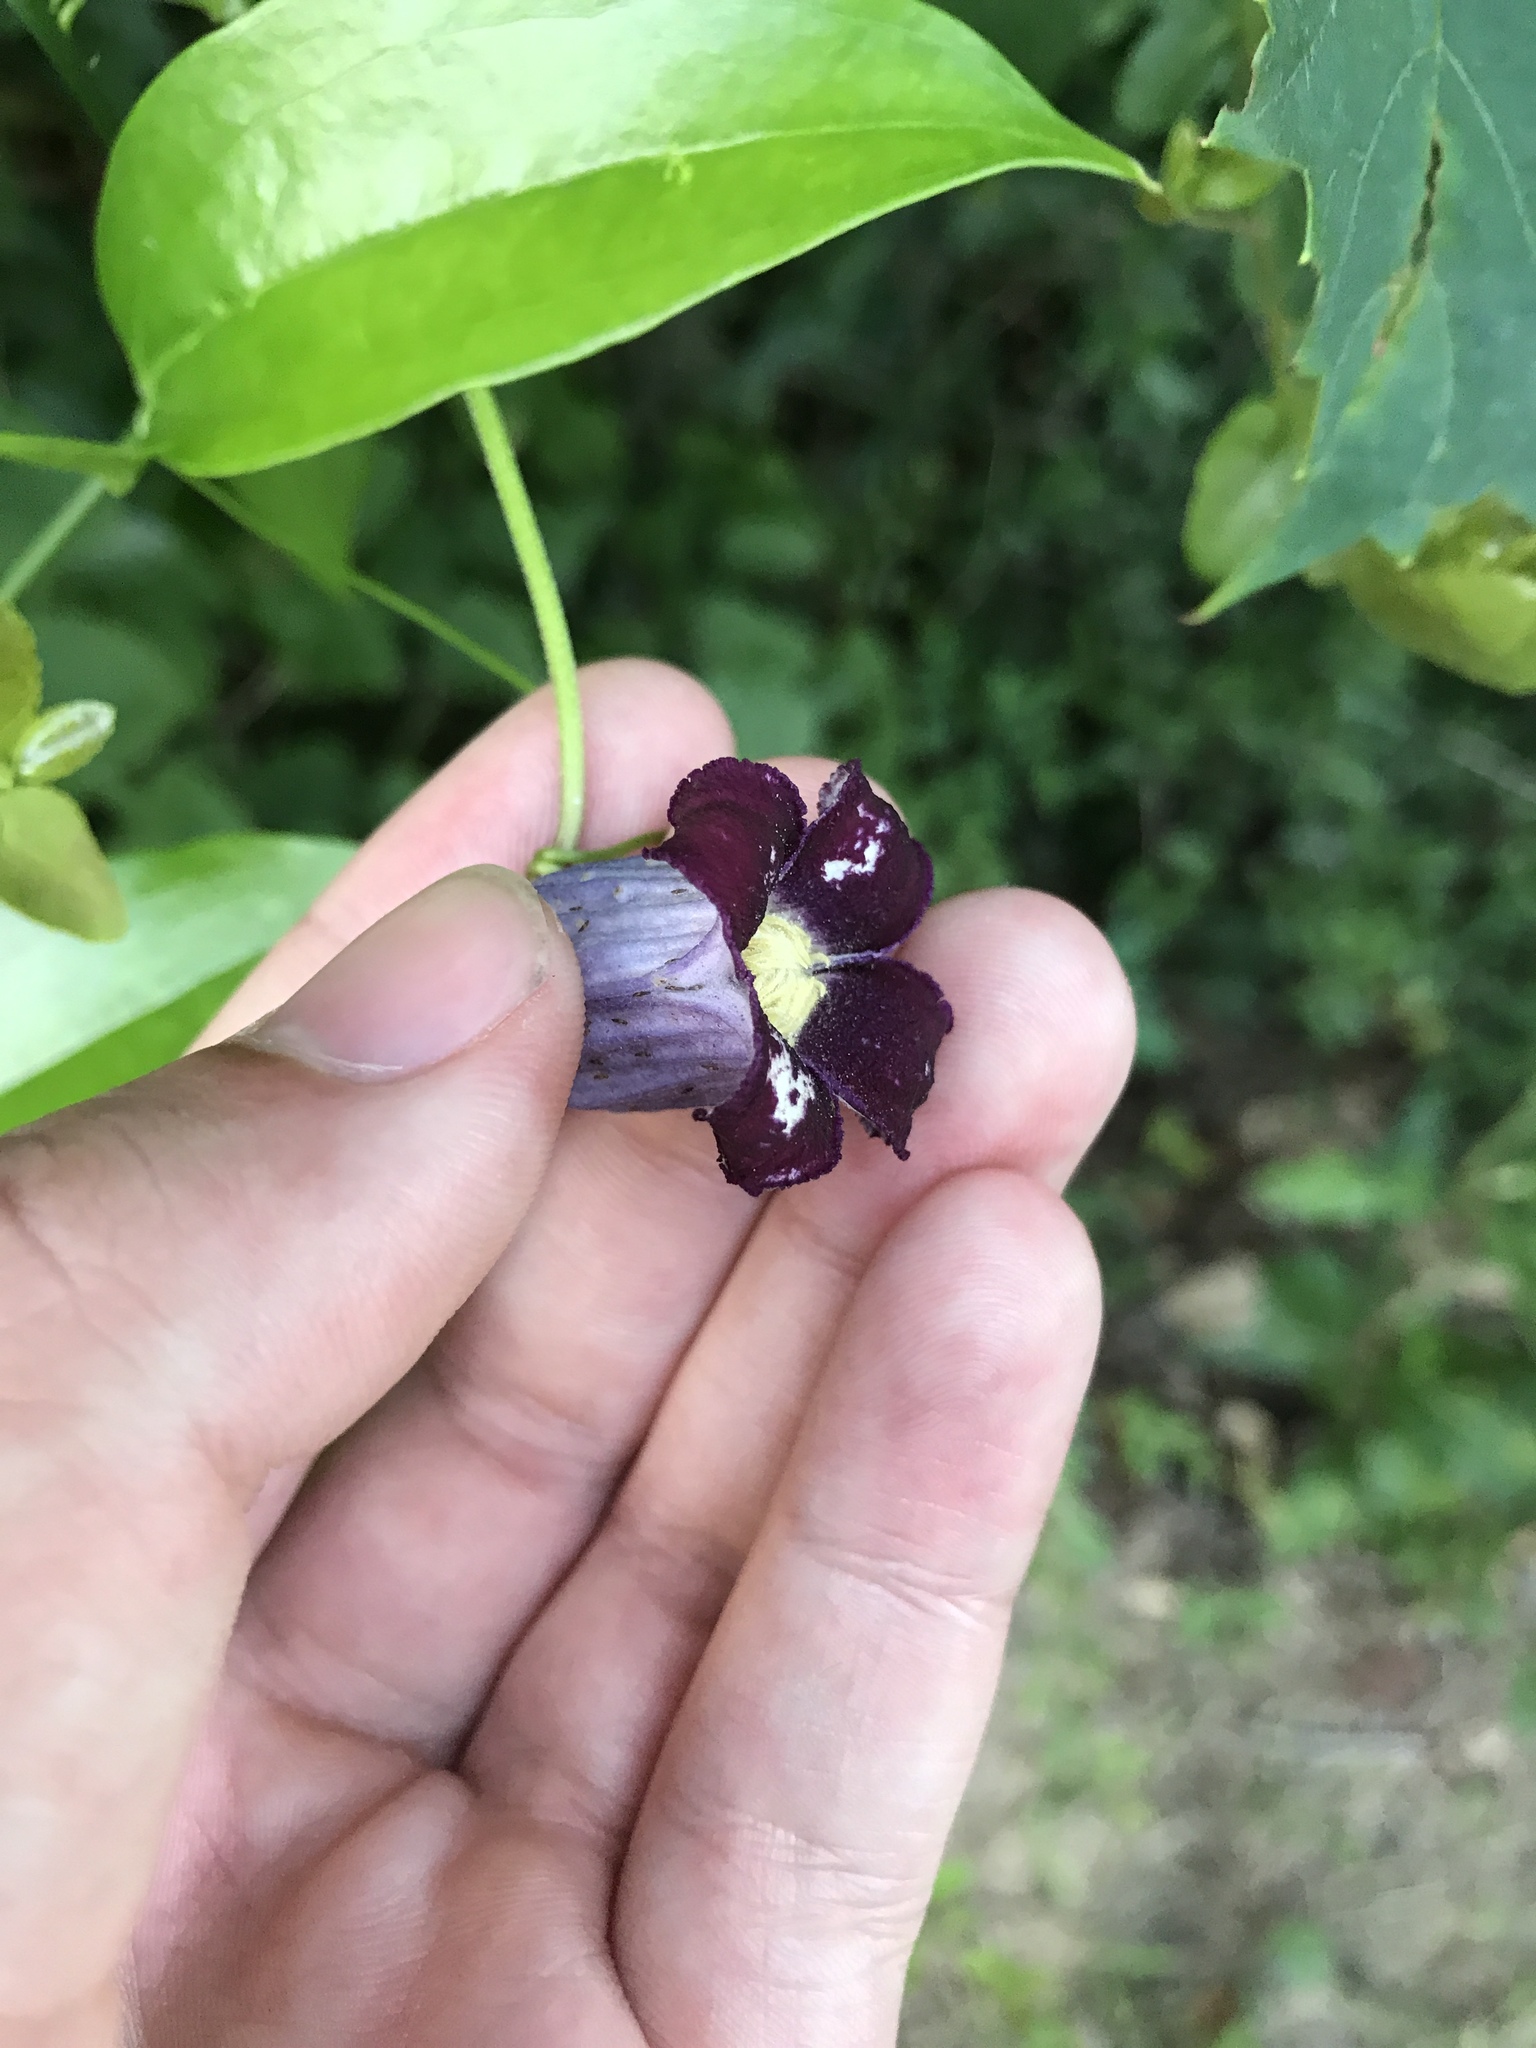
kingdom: Plantae
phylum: Tracheophyta
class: Magnoliopsida
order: Ranunculales
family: Ranunculaceae
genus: Clematis
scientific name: Clematis pitcheri
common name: Bellflower clematis
